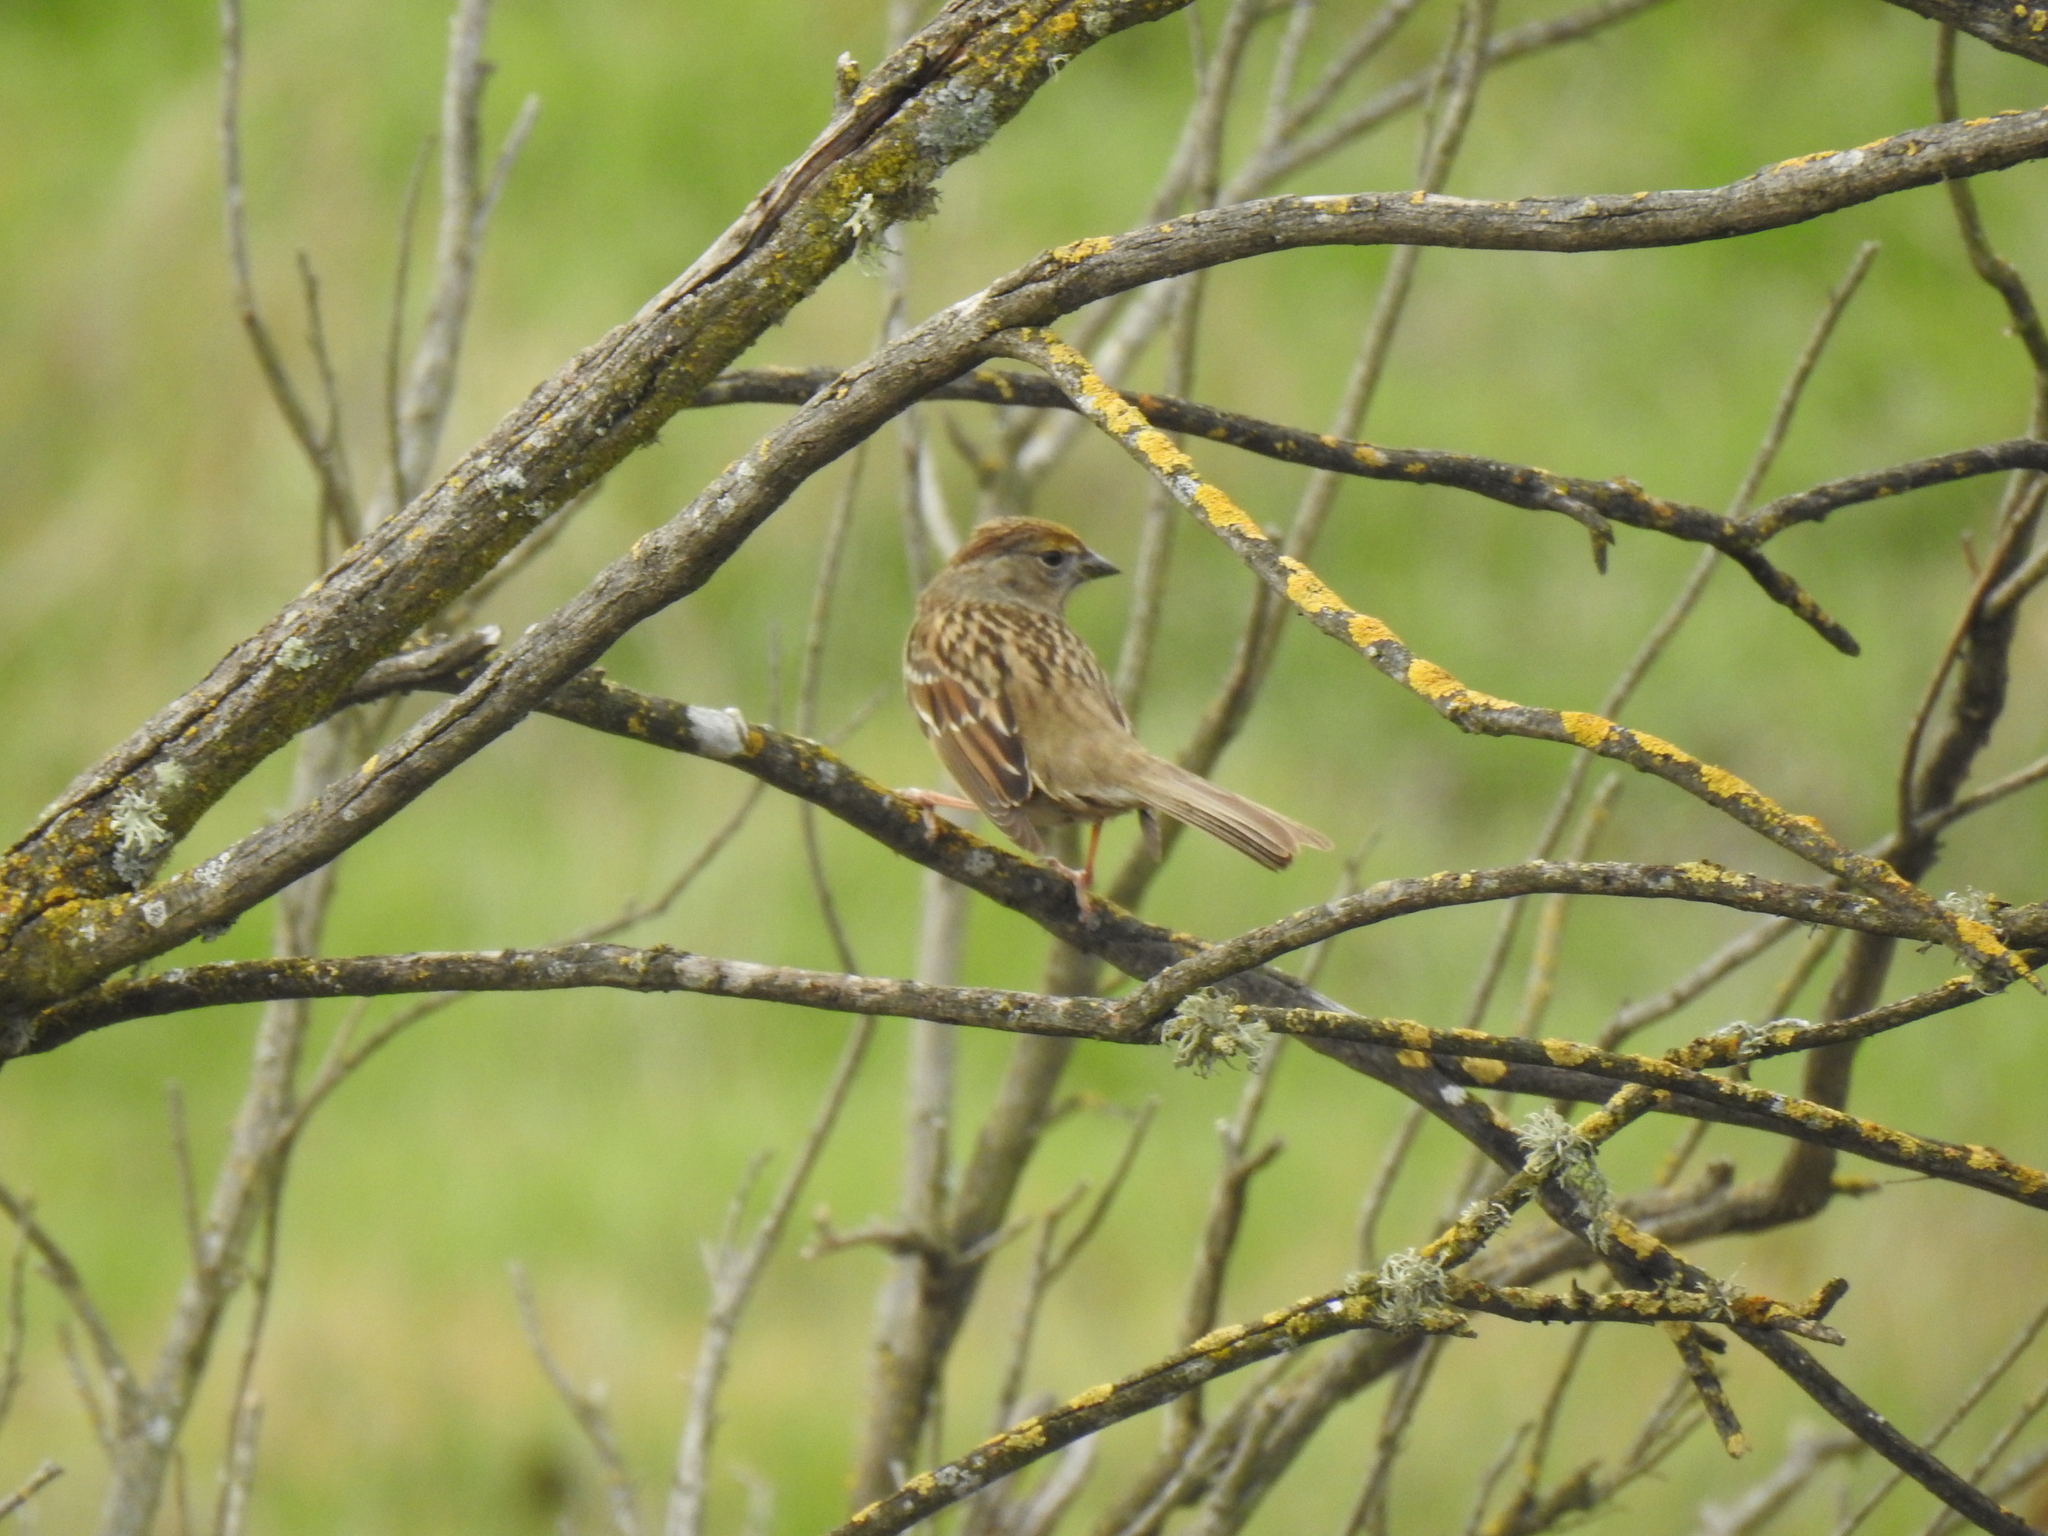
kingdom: Animalia
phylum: Chordata
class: Aves
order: Passeriformes
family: Passerellidae
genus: Zonotrichia
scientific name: Zonotrichia atricapilla
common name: Golden-crowned sparrow
